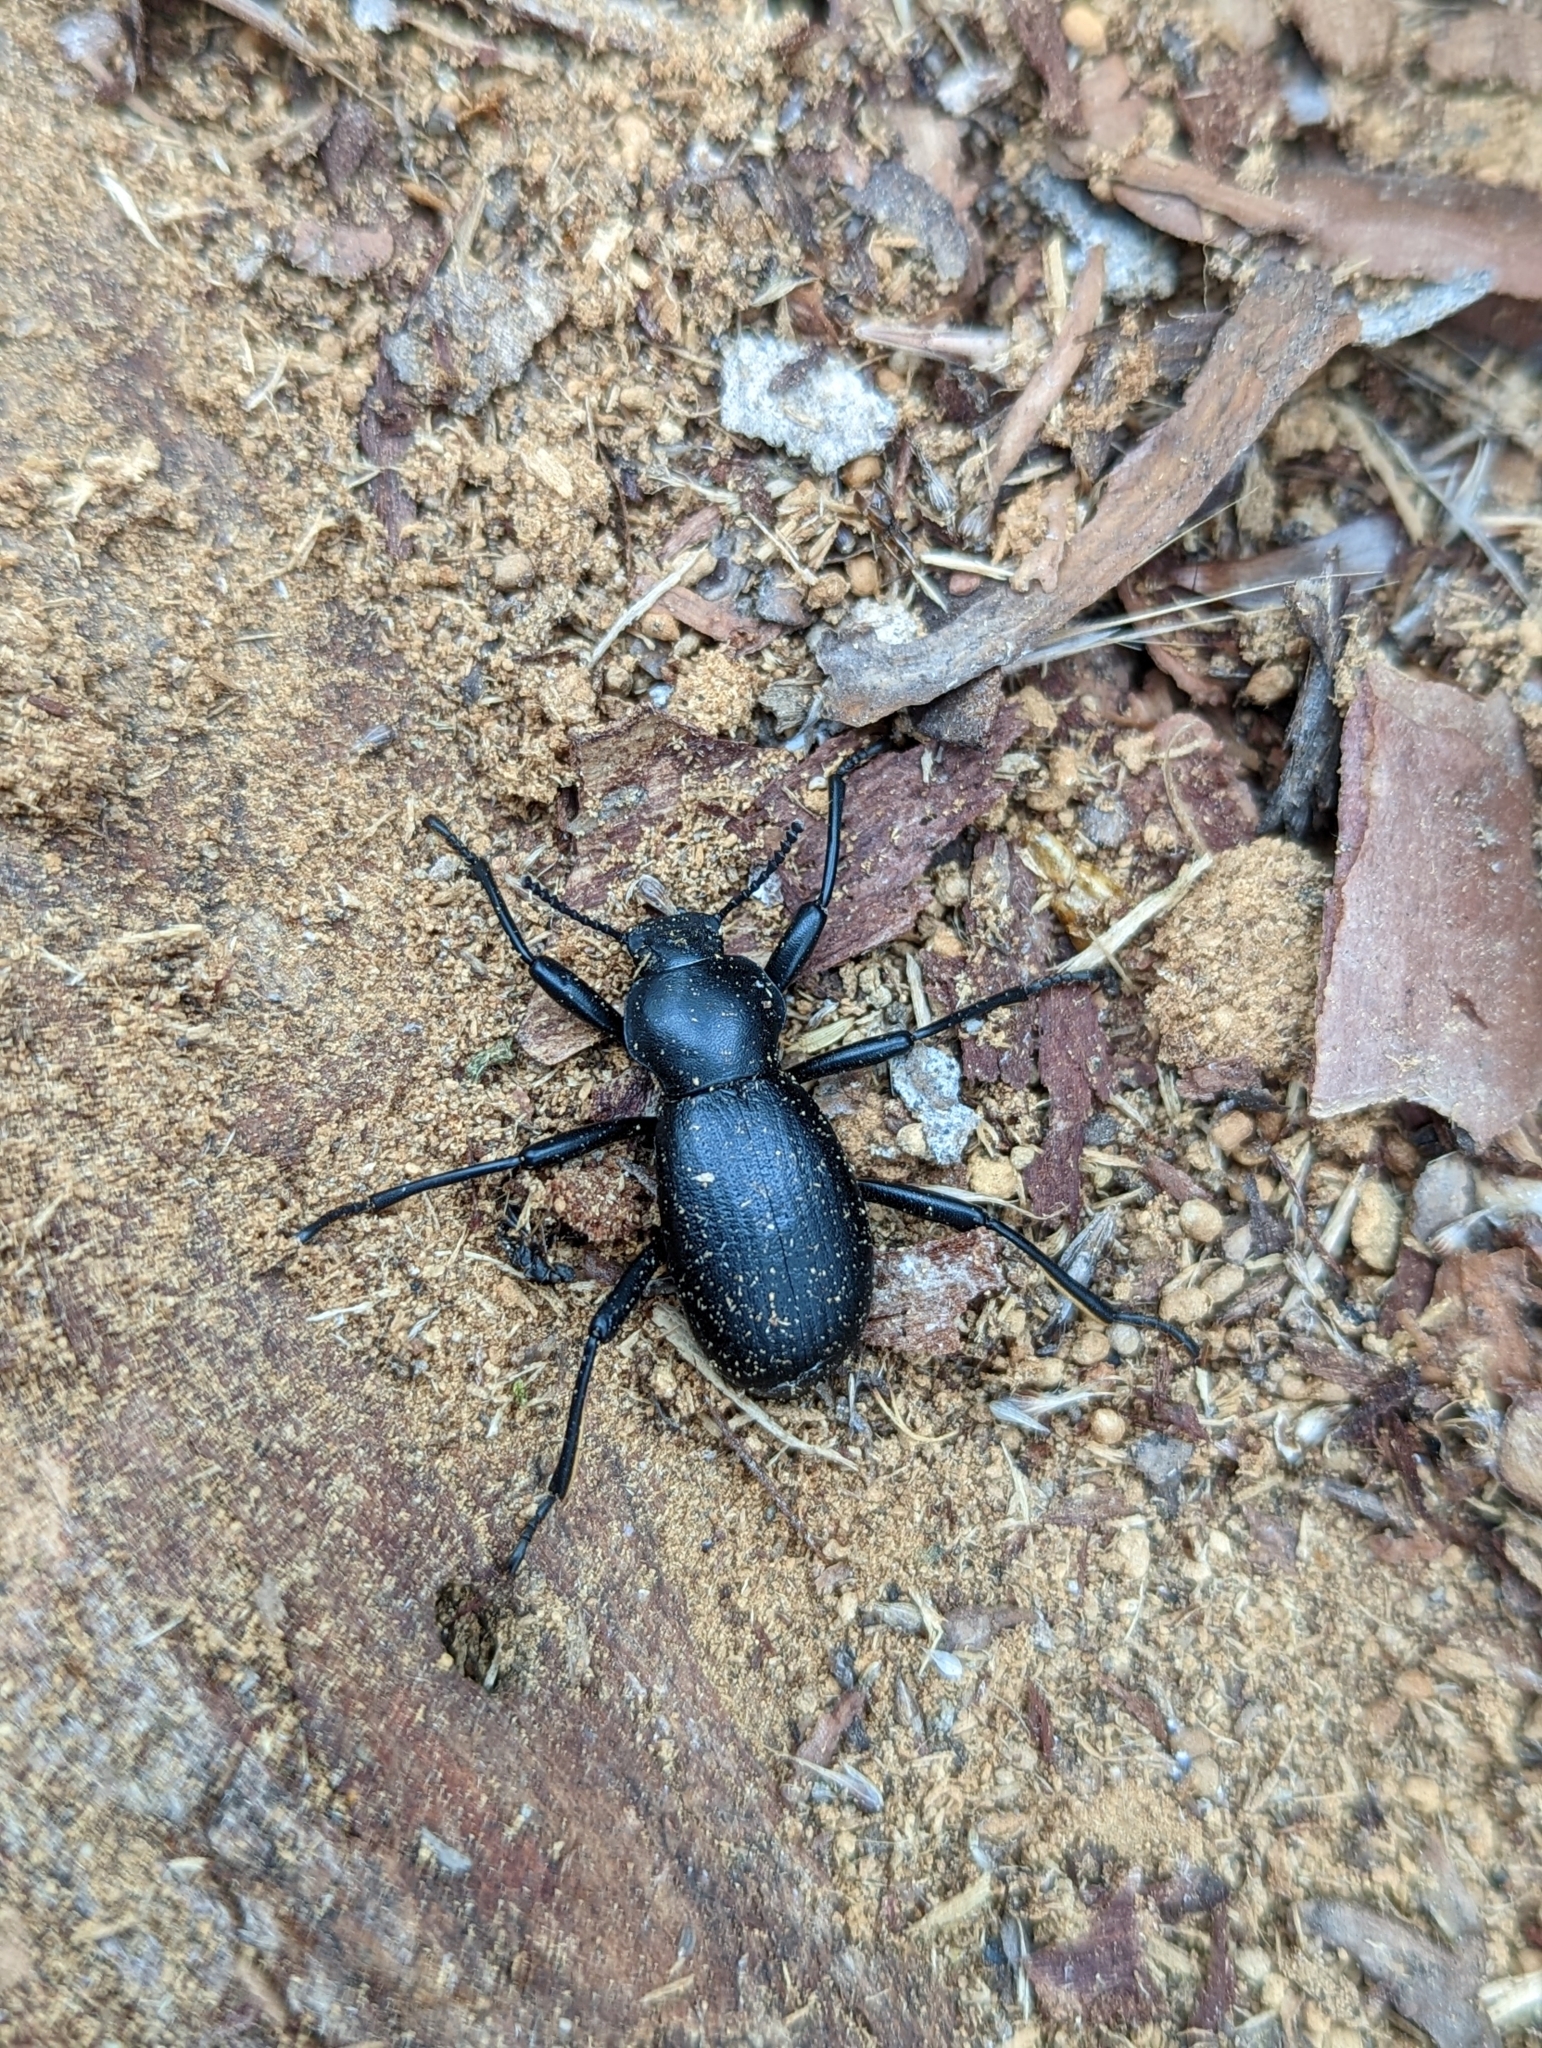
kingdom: Animalia
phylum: Arthropoda
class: Insecta
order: Coleoptera
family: Tenebrionidae
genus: Coelocnemis
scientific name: Coelocnemis dilaticollis
